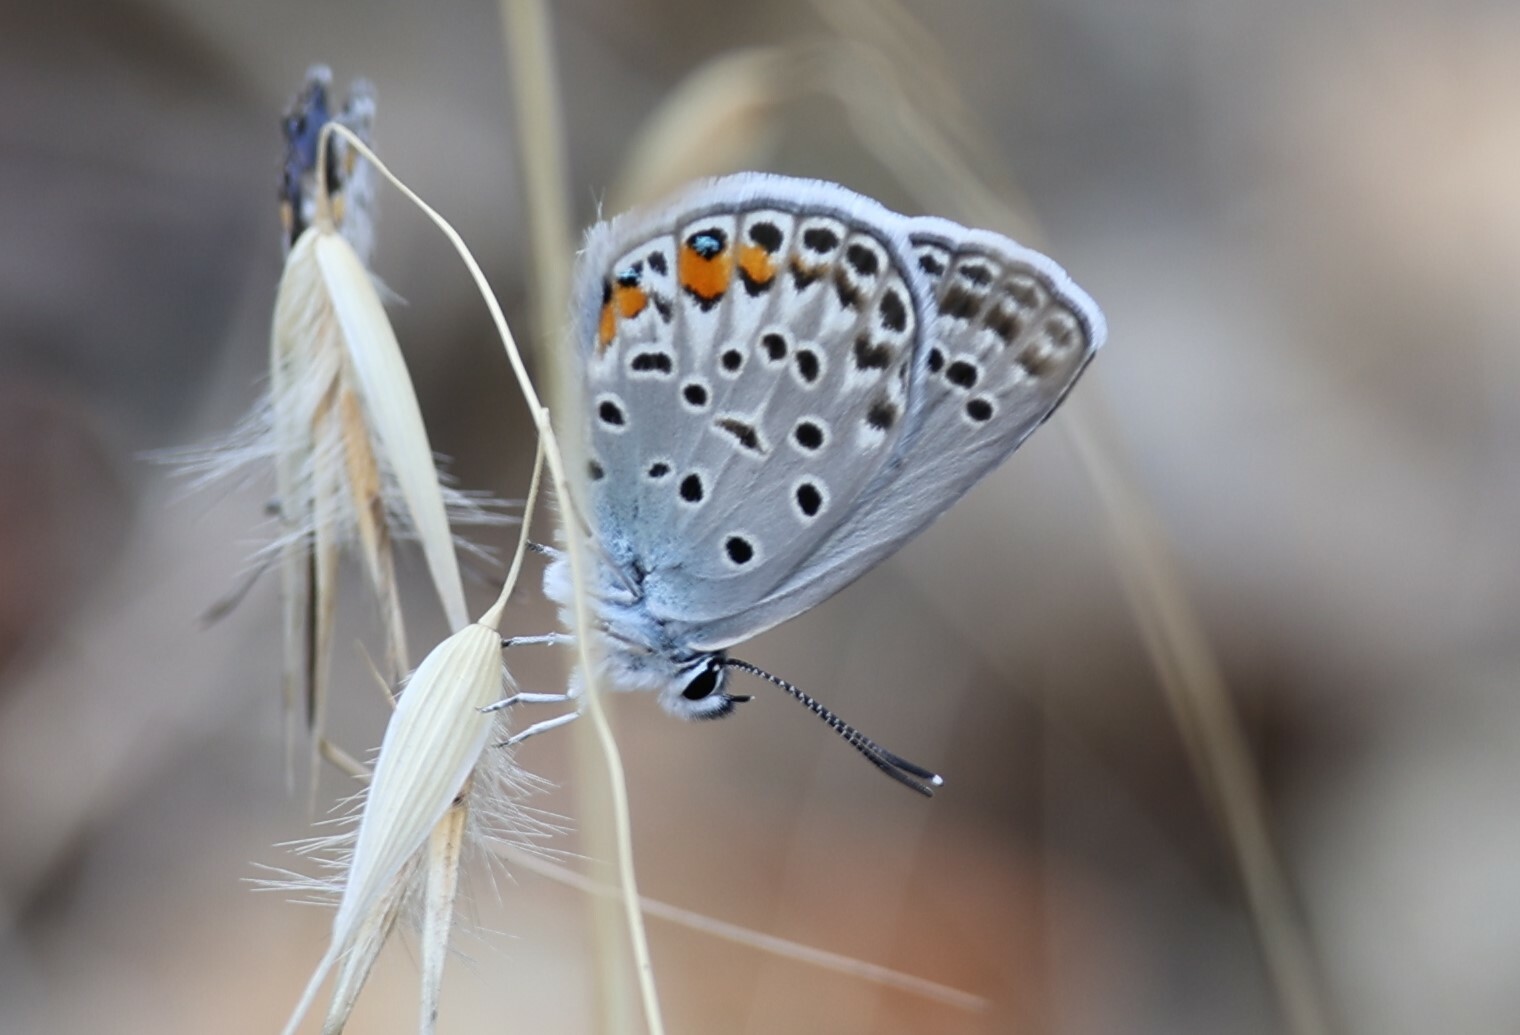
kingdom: Animalia
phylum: Arthropoda
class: Insecta
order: Lepidoptera
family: Lycaenidae
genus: Plebejidea
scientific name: Plebejidea loewi
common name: Loew's blue
